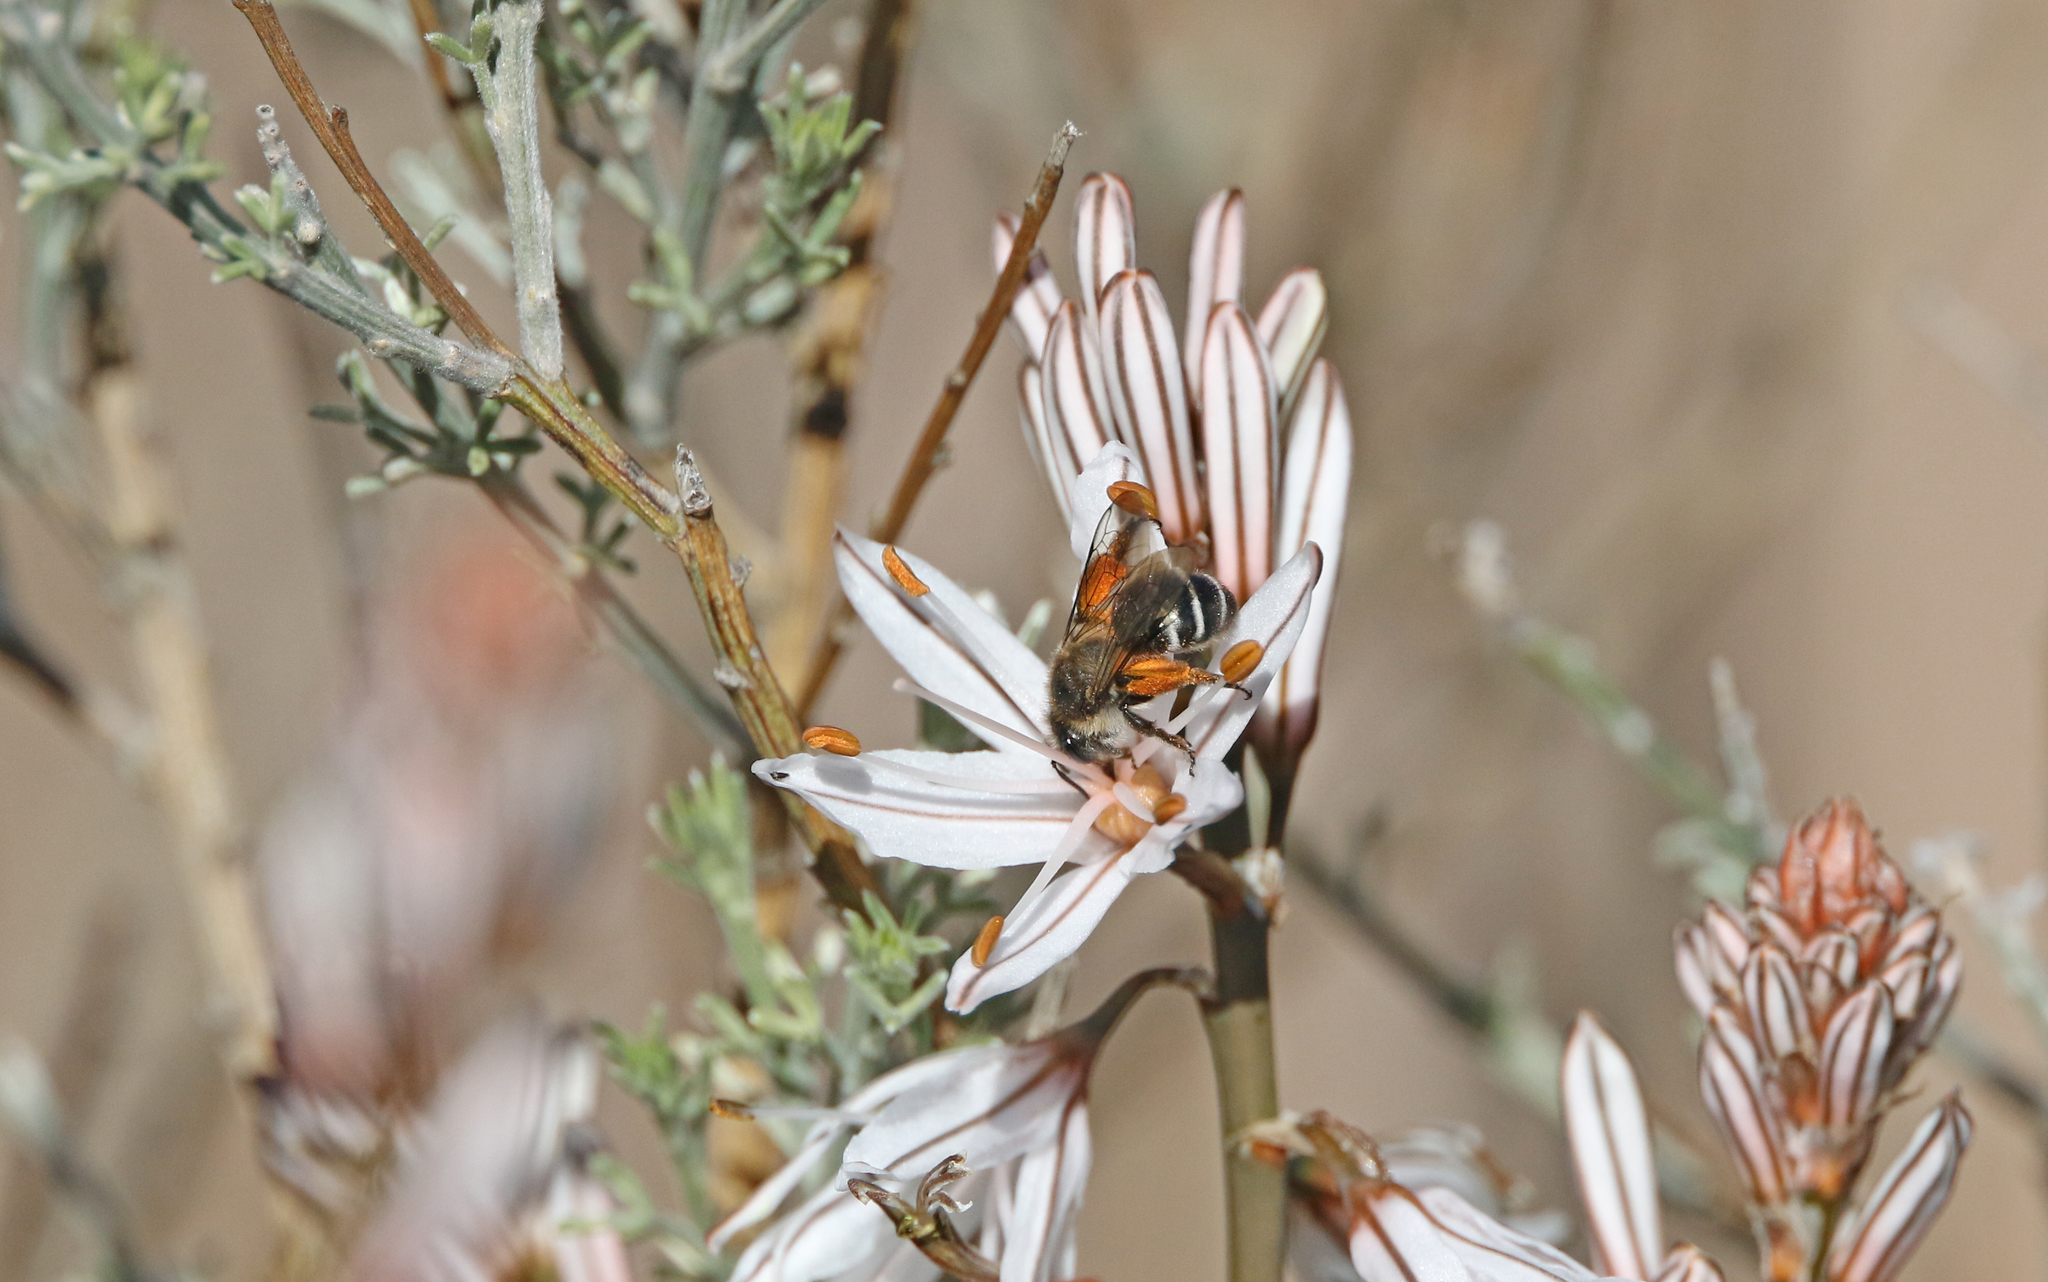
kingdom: Animalia
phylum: Arthropoda
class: Insecta
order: Hymenoptera
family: Apidae
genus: Eucera
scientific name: Eucera gracilipes
